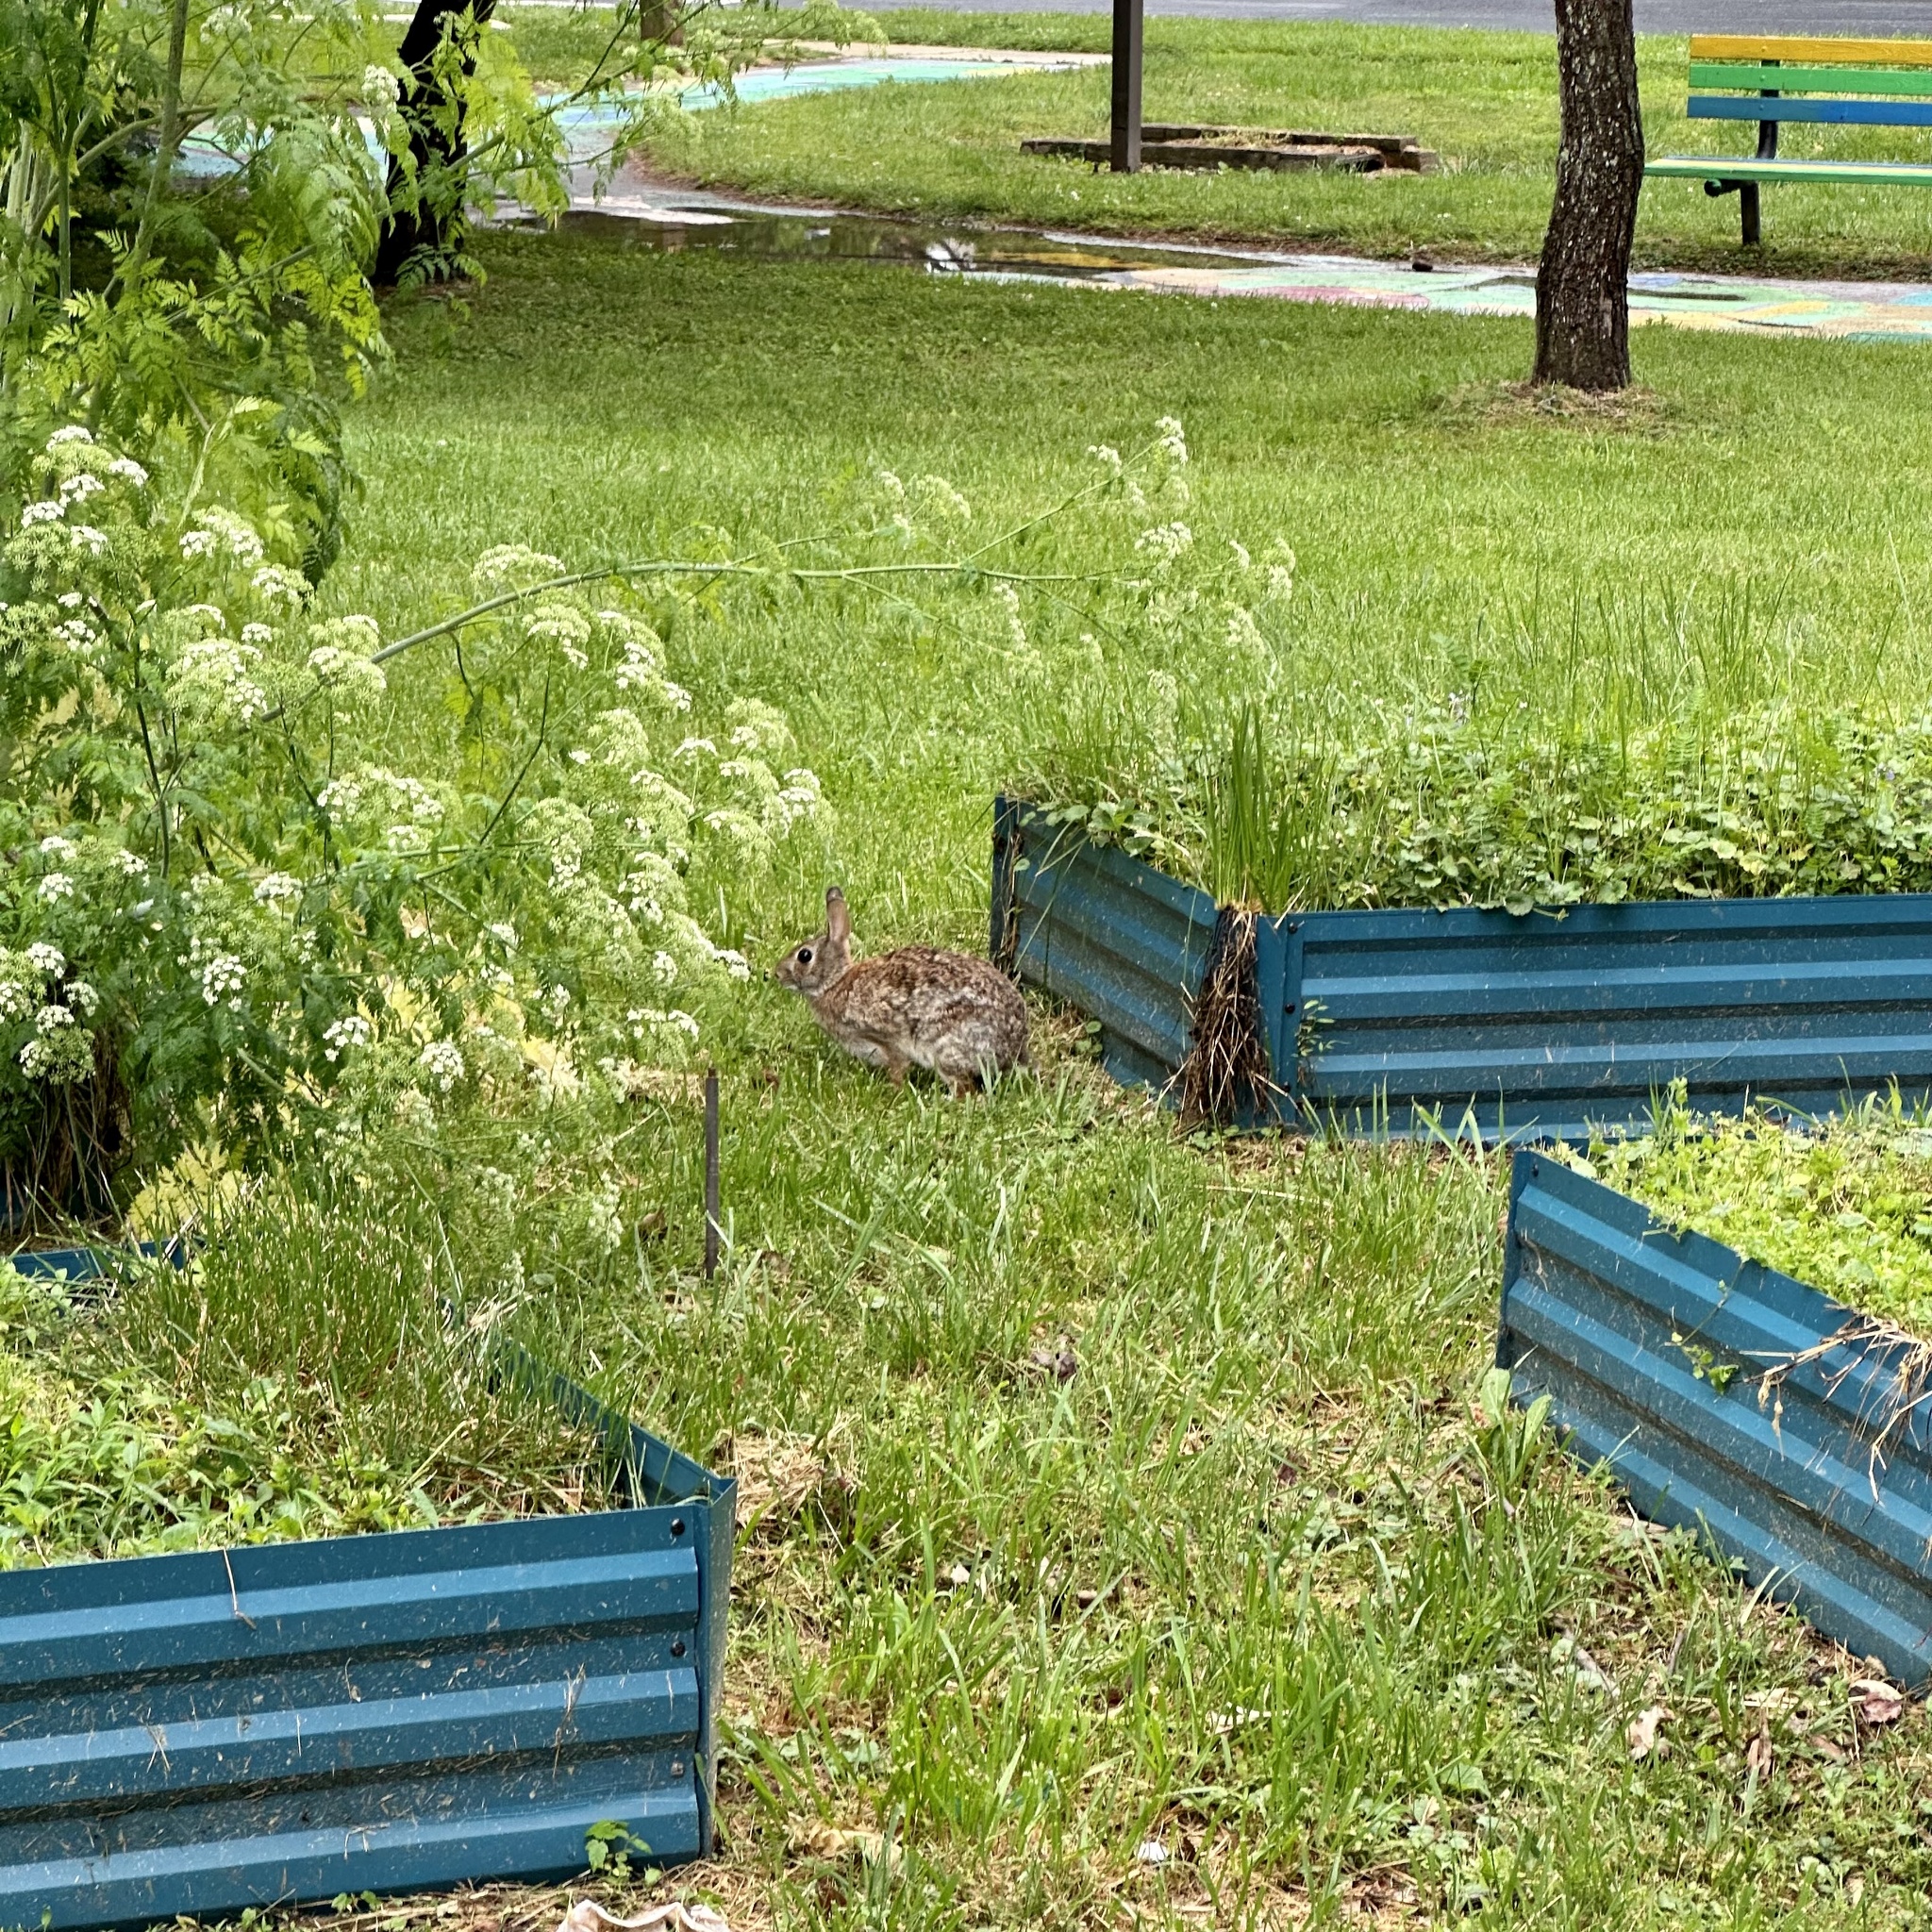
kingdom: Animalia
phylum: Chordata
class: Mammalia
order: Lagomorpha
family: Leporidae
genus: Sylvilagus
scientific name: Sylvilagus floridanus
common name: Eastern cottontail
